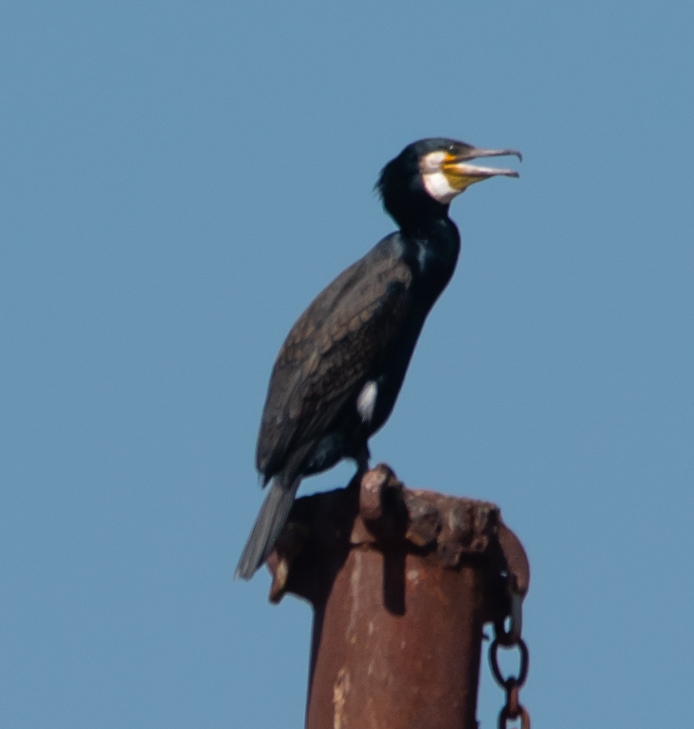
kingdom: Animalia
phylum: Chordata
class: Aves
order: Suliformes
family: Phalacrocoracidae
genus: Phalacrocorax
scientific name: Phalacrocorax carbo
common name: Great cormorant
